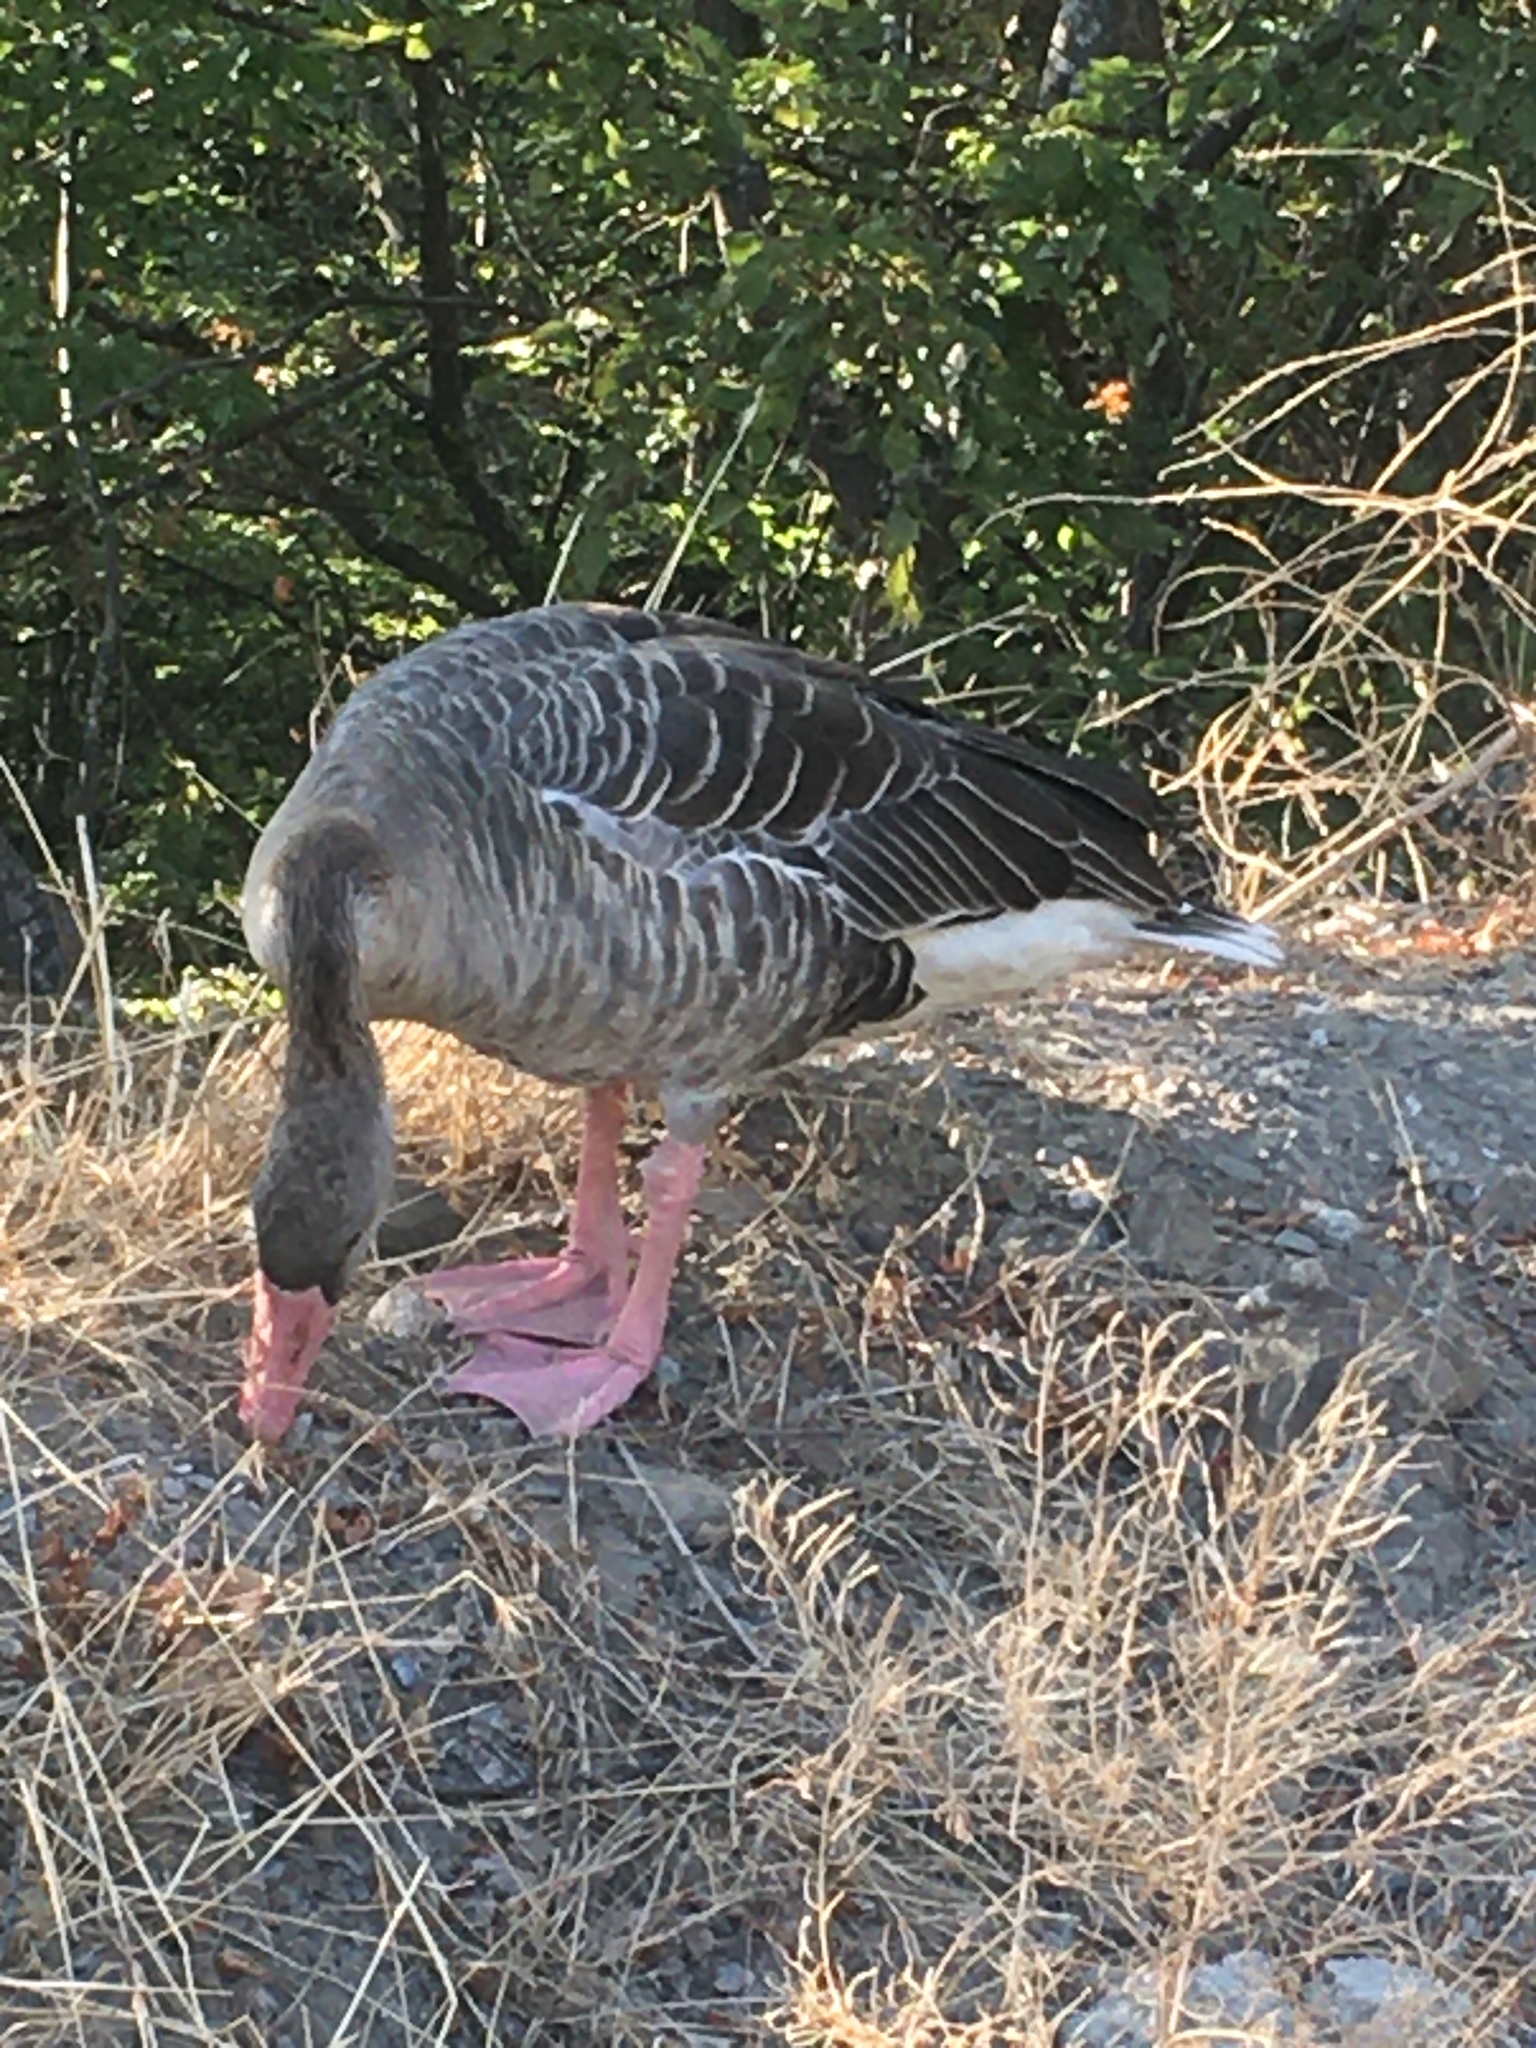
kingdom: Animalia
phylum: Chordata
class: Aves
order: Anseriformes
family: Anatidae
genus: Anser
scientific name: Anser anser
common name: Greylag goose
